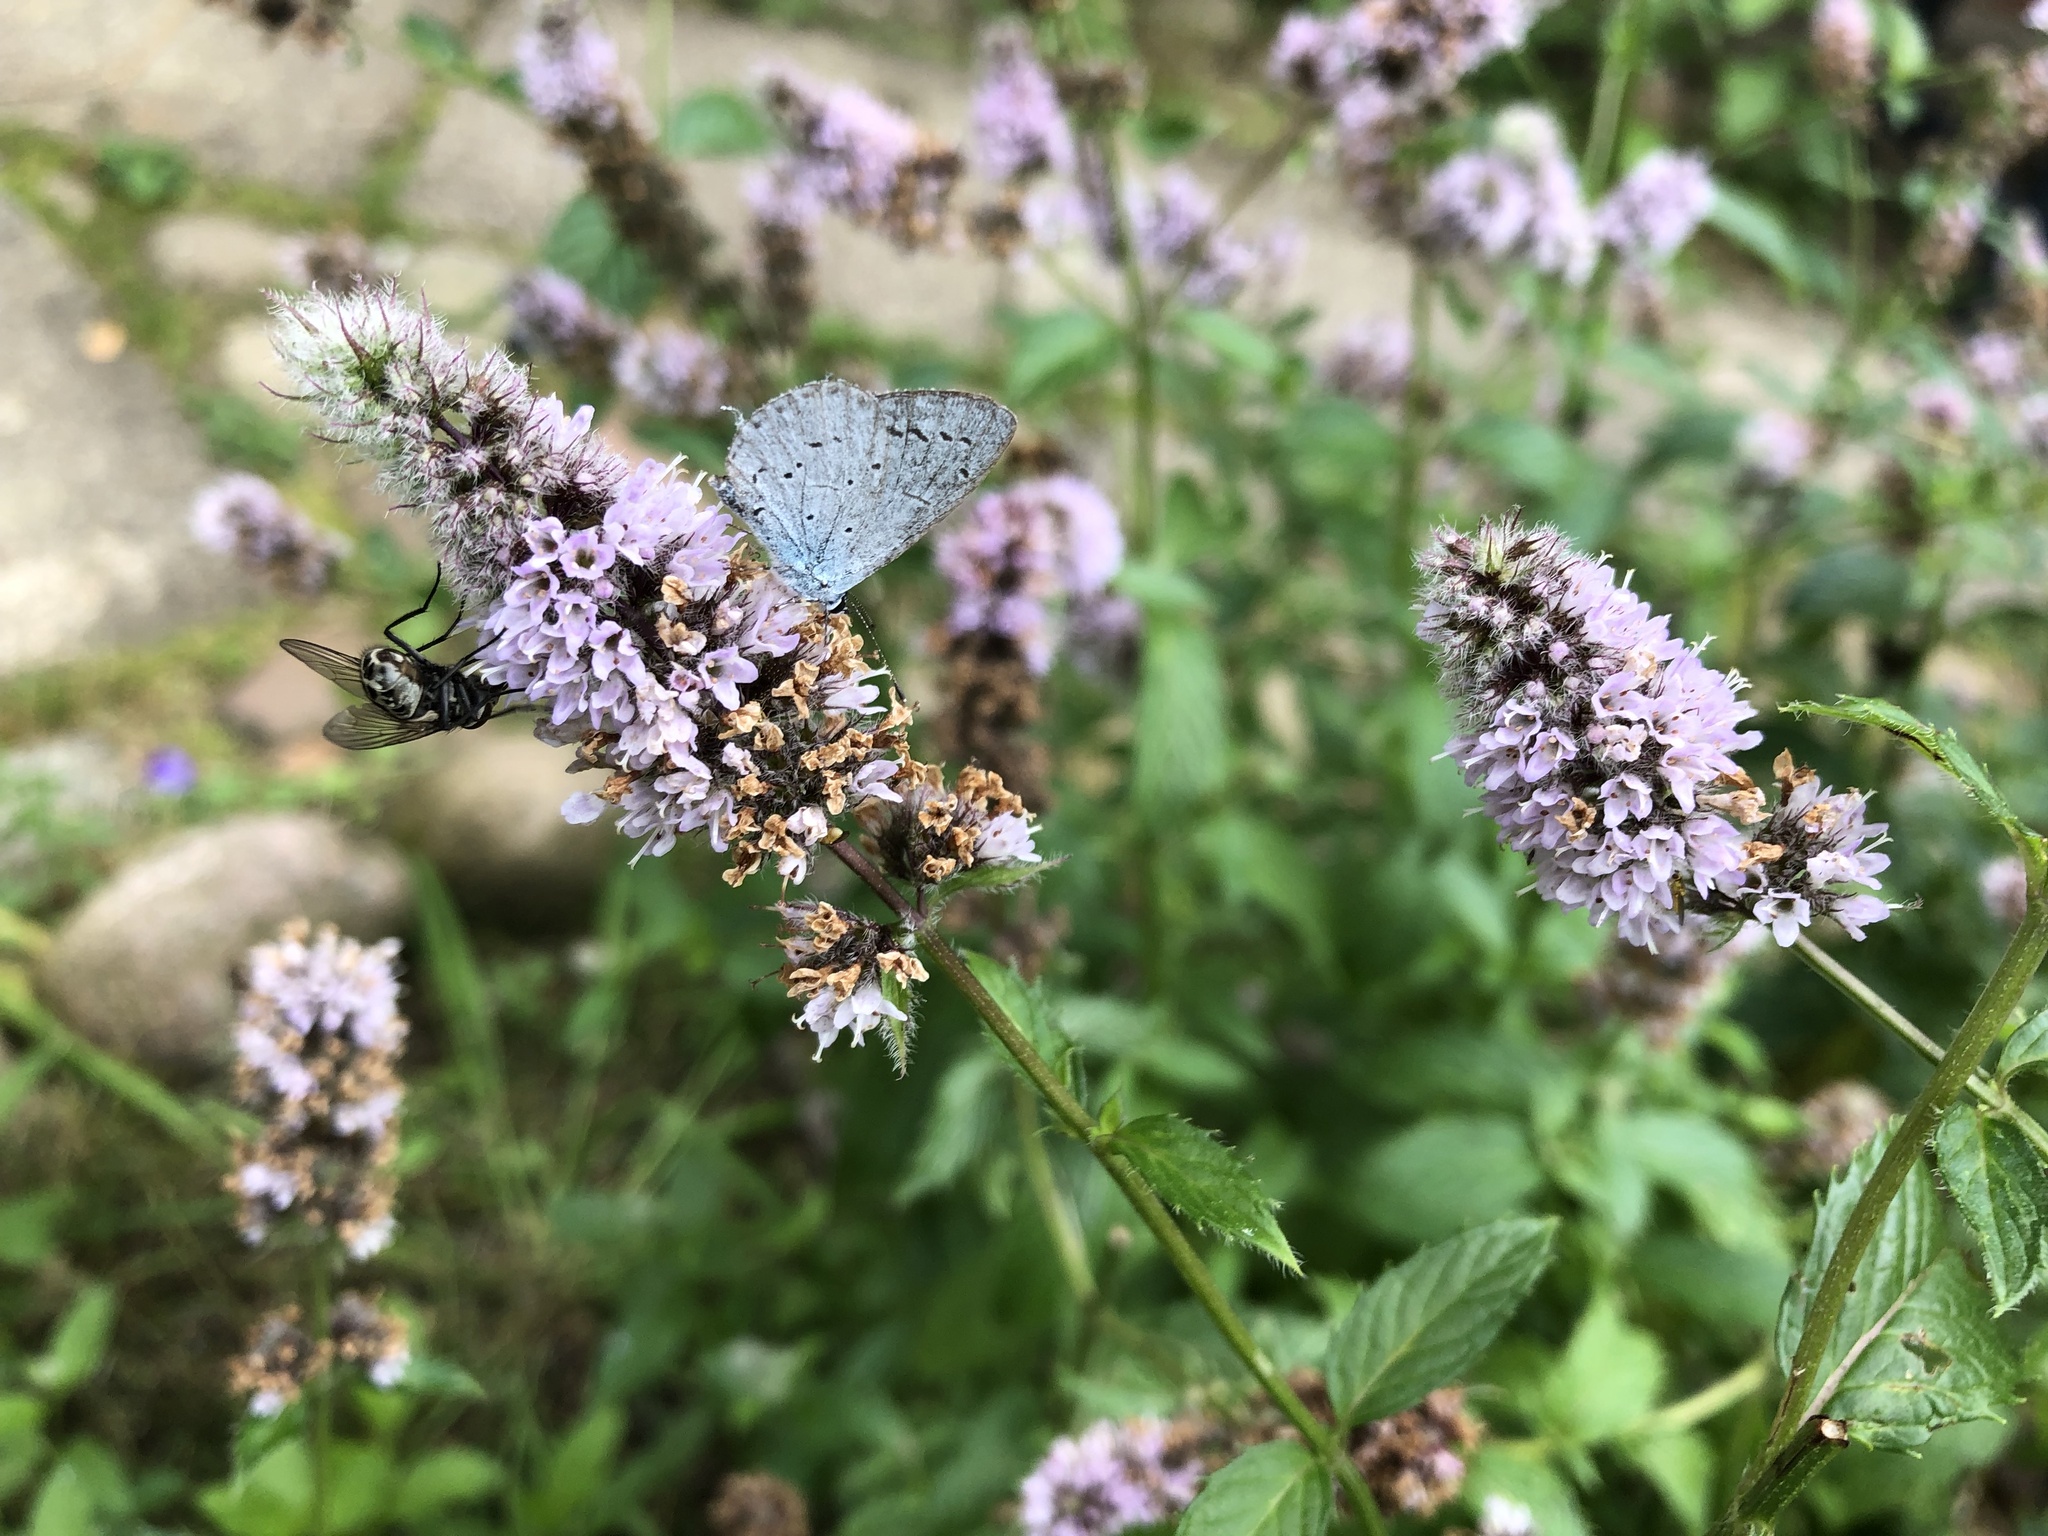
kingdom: Animalia
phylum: Arthropoda
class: Insecta
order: Lepidoptera
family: Lycaenidae
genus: Celastrina
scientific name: Celastrina argiolus
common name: Holly blue
